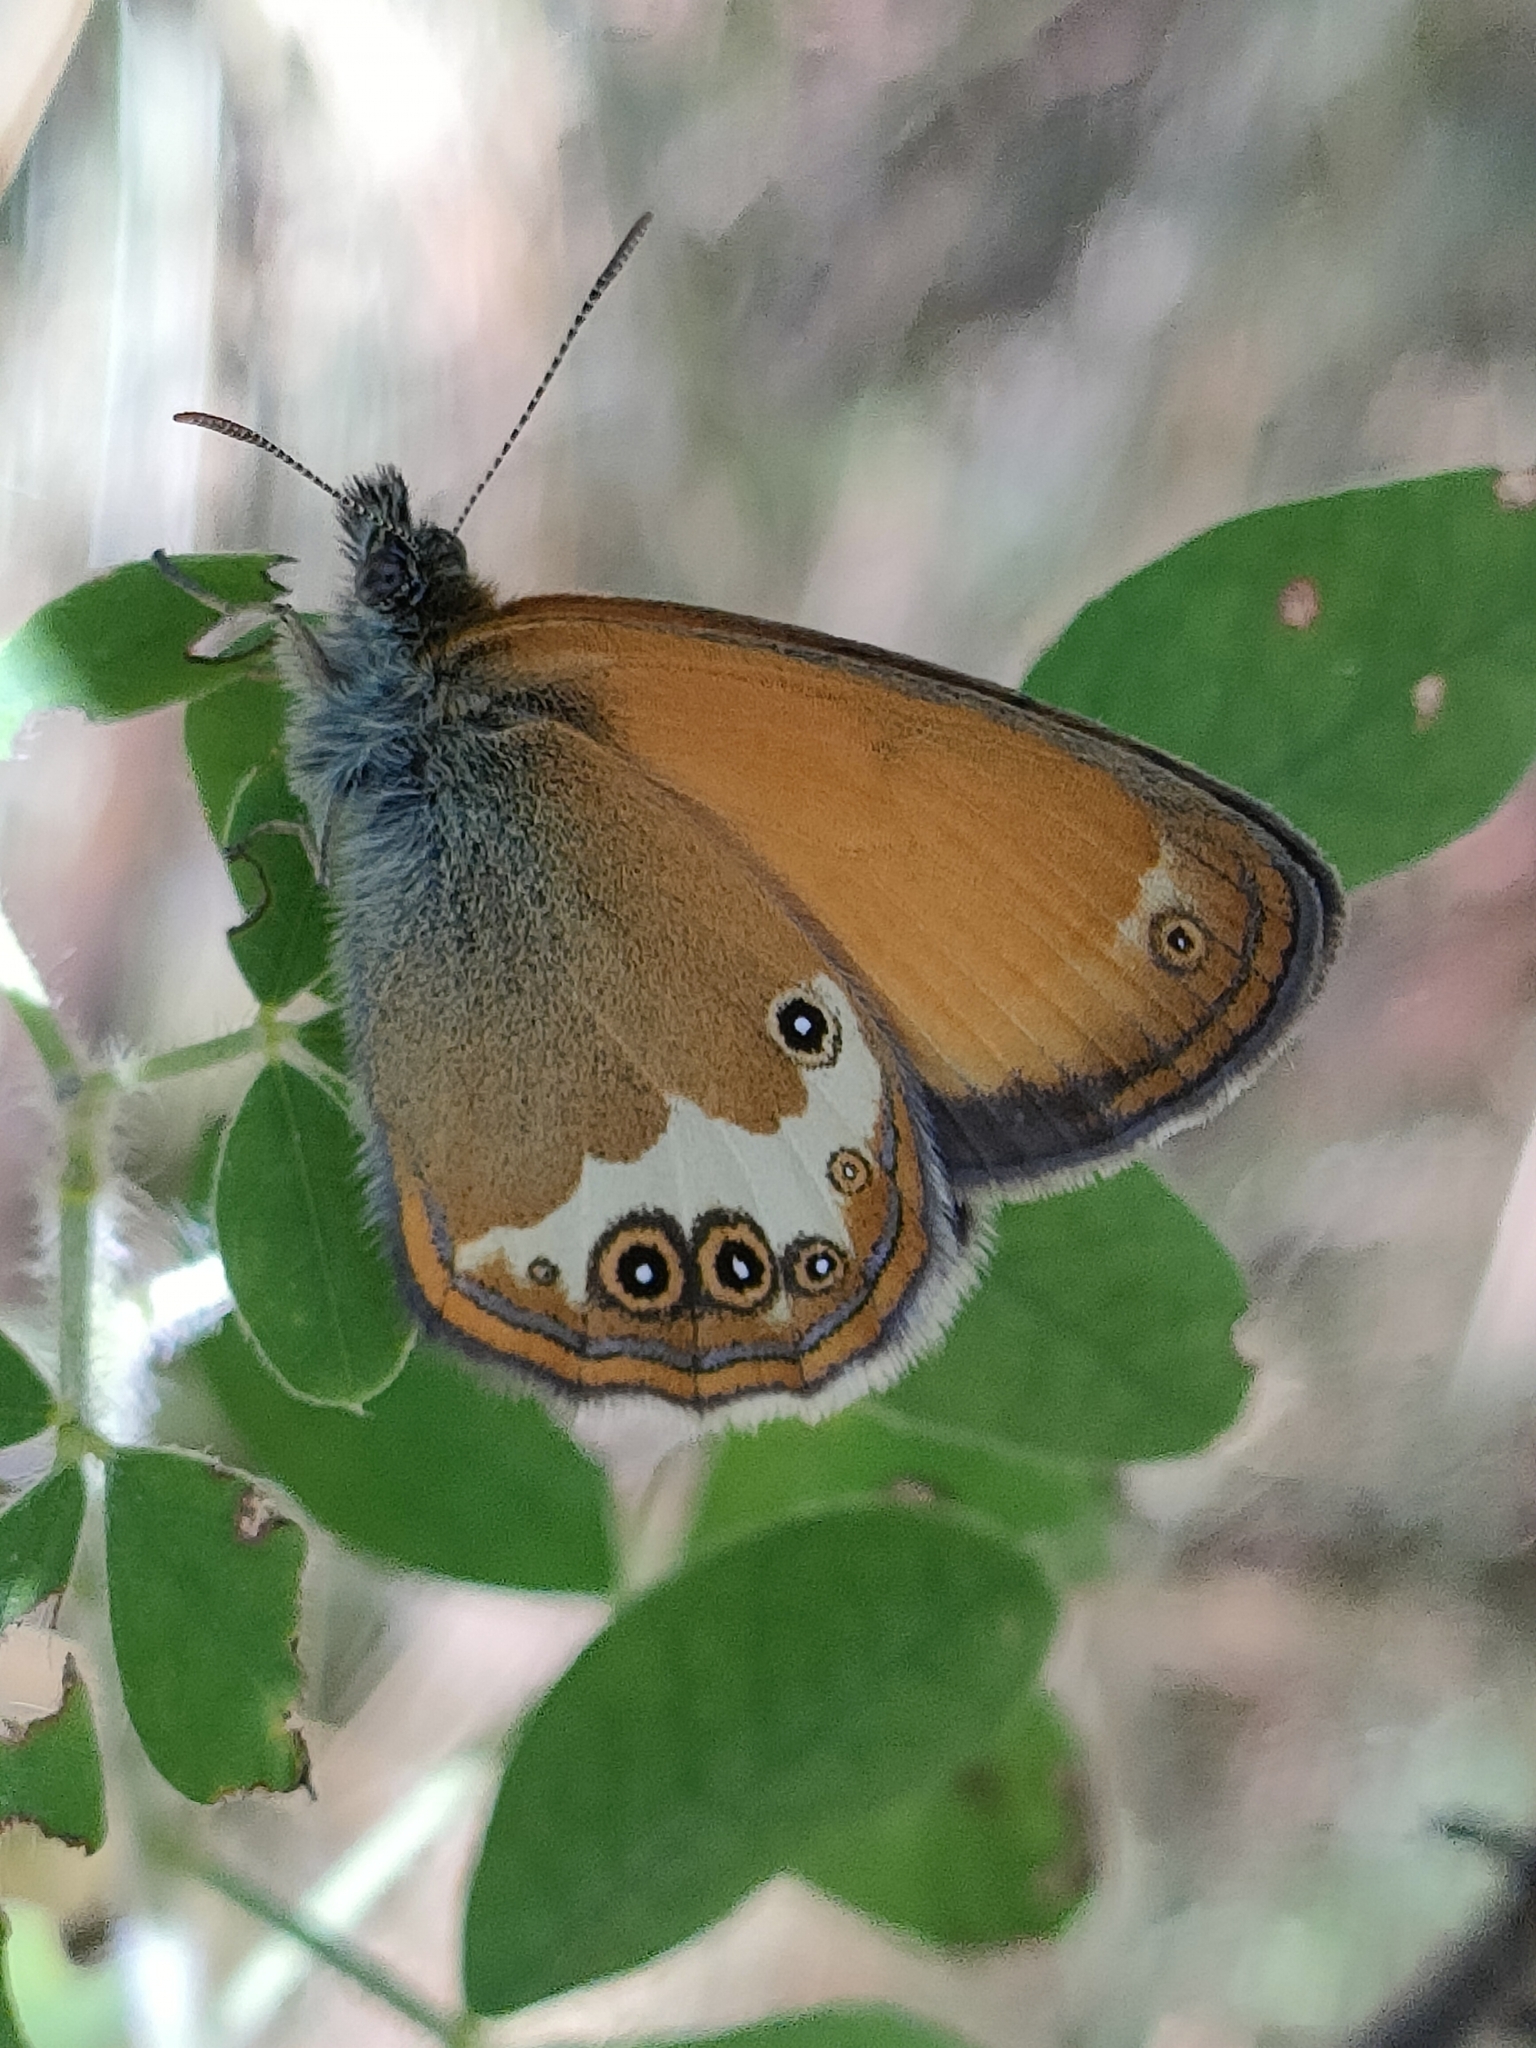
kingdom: Animalia
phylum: Arthropoda
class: Insecta
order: Lepidoptera
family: Nymphalidae
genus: Coenonympha
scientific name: Coenonympha arcania
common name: Pearly heath
